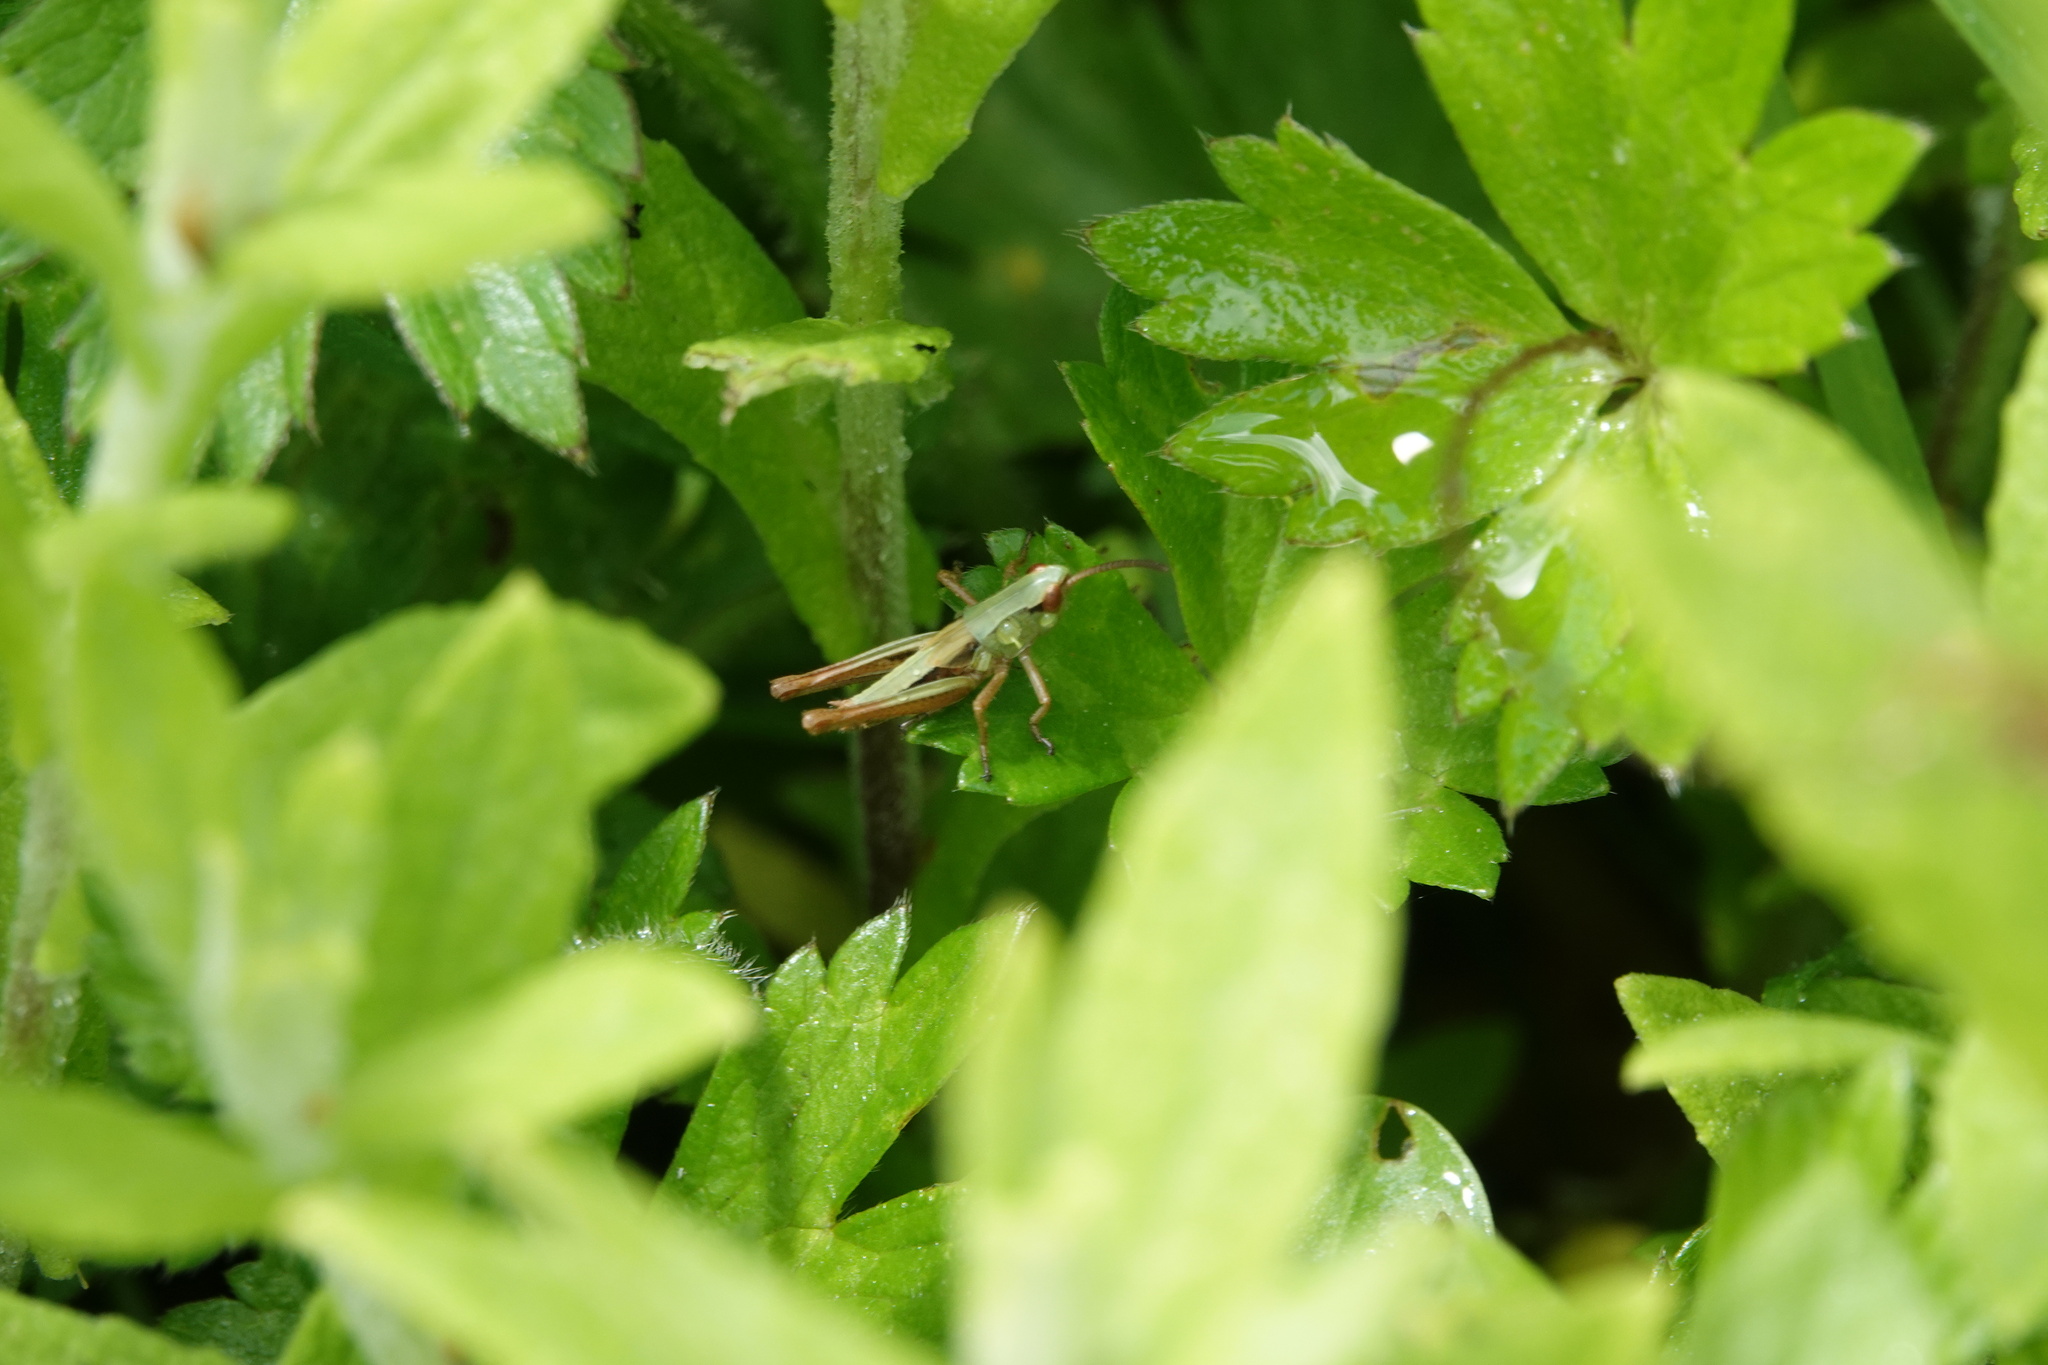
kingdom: Animalia
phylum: Arthropoda
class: Insecta
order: Orthoptera
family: Acrididae
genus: Pseudochorthippus
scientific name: Pseudochorthippus parallelus
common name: Meadow grasshopper
